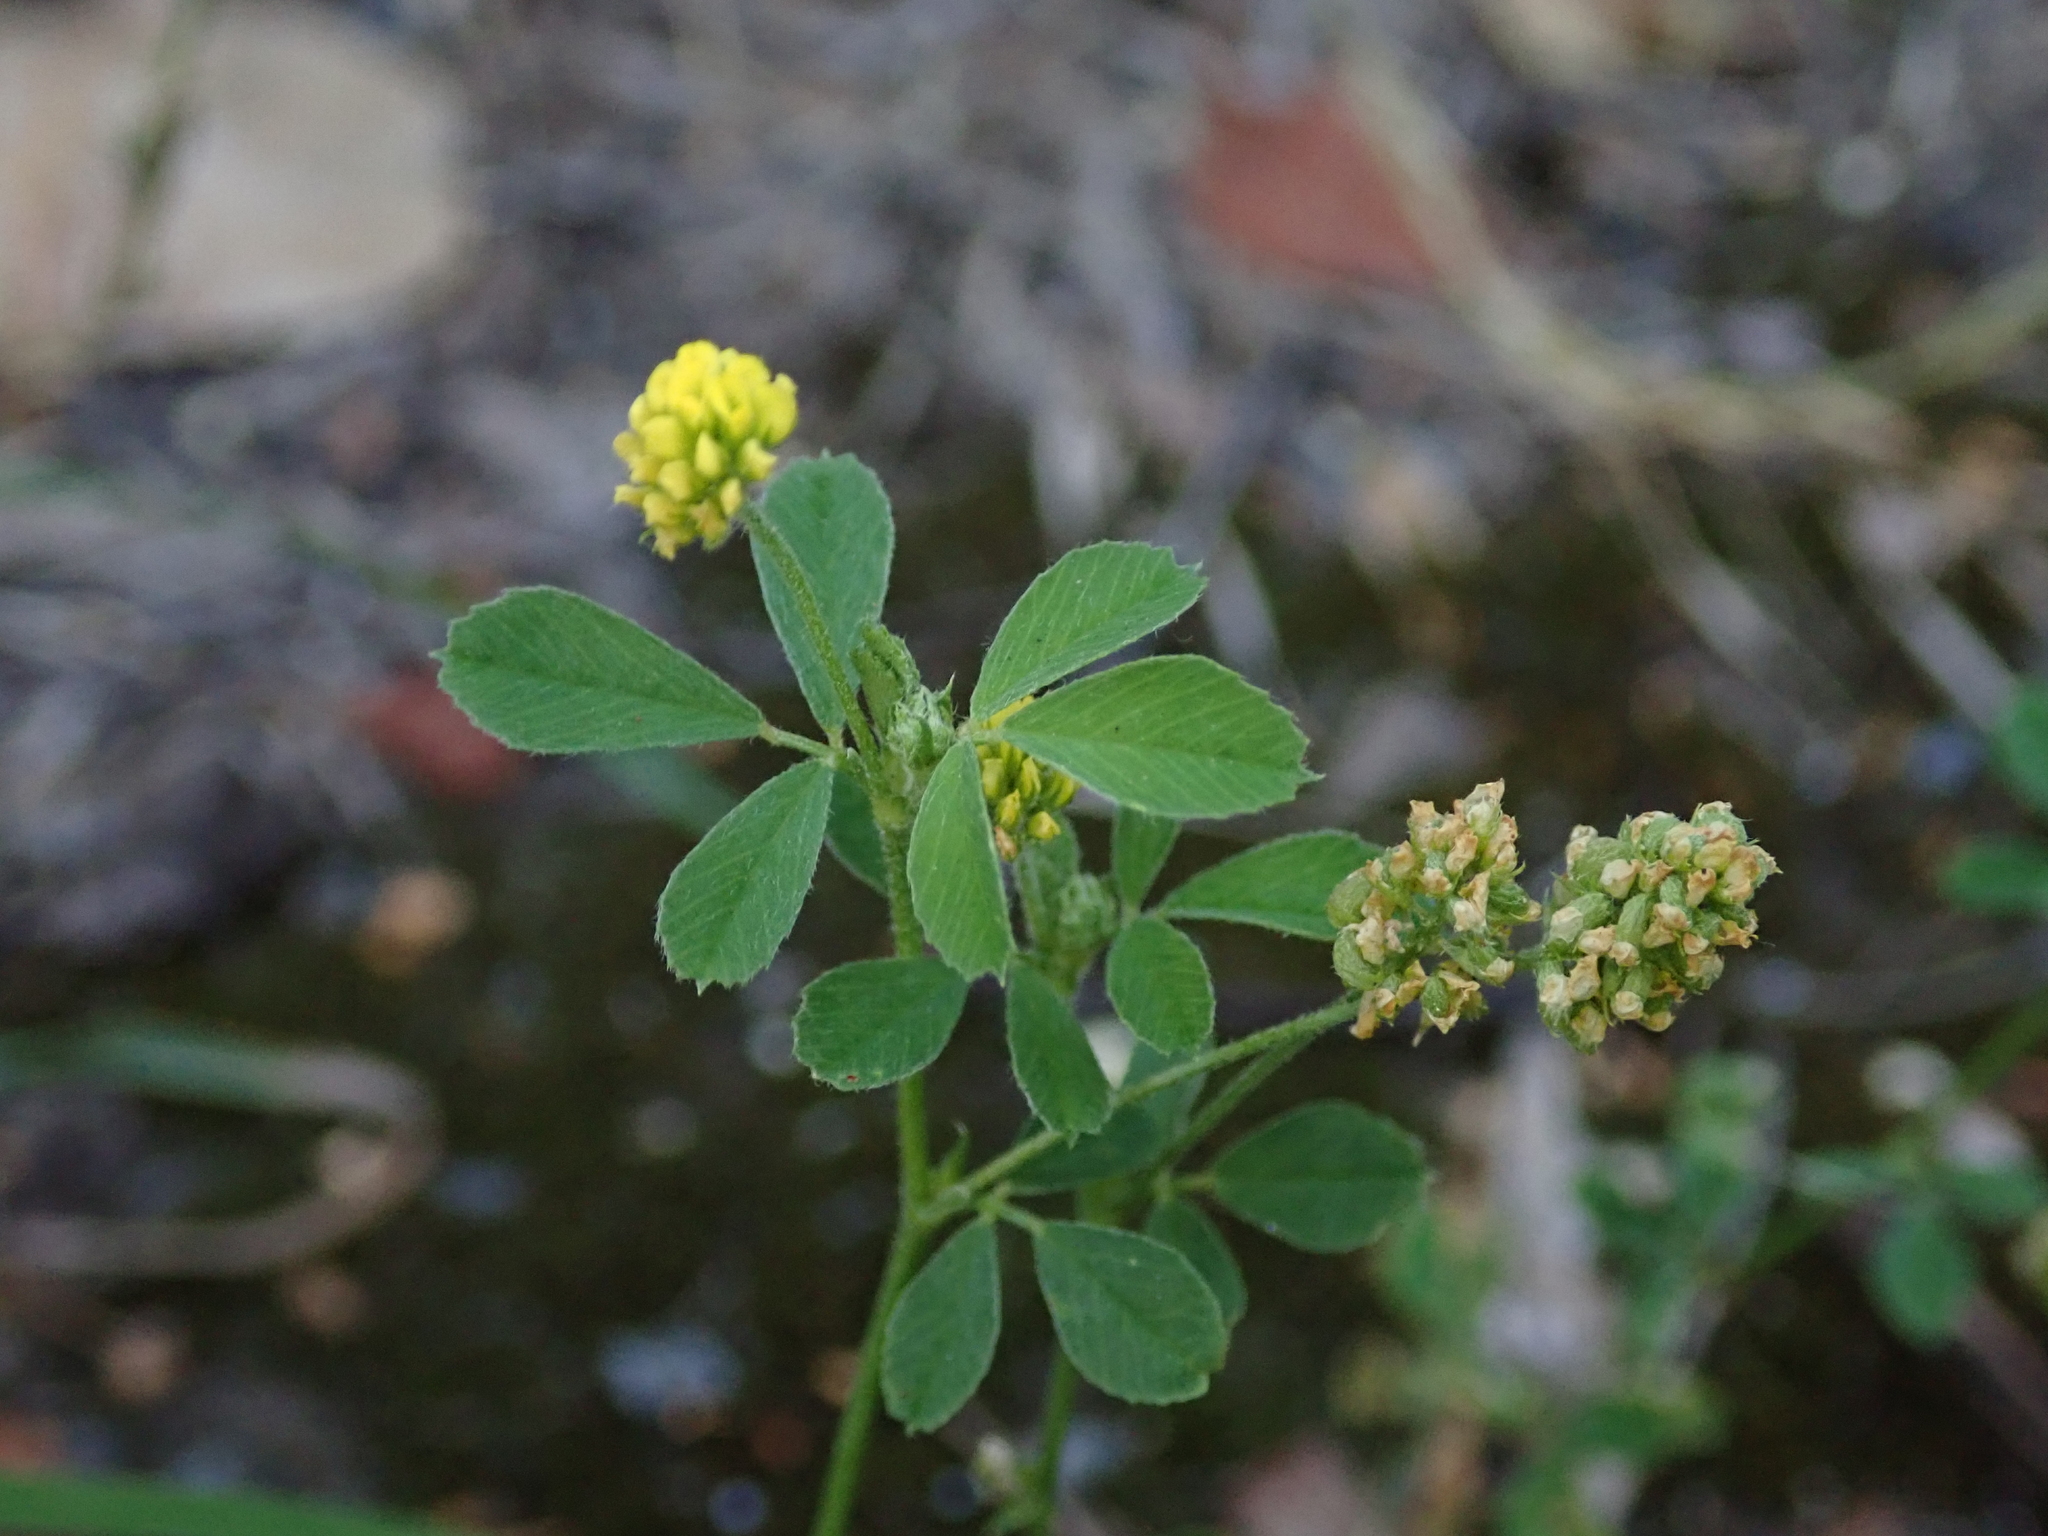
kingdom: Plantae
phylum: Tracheophyta
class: Magnoliopsida
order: Fabales
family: Fabaceae
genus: Medicago
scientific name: Medicago lupulina
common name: Black medick
